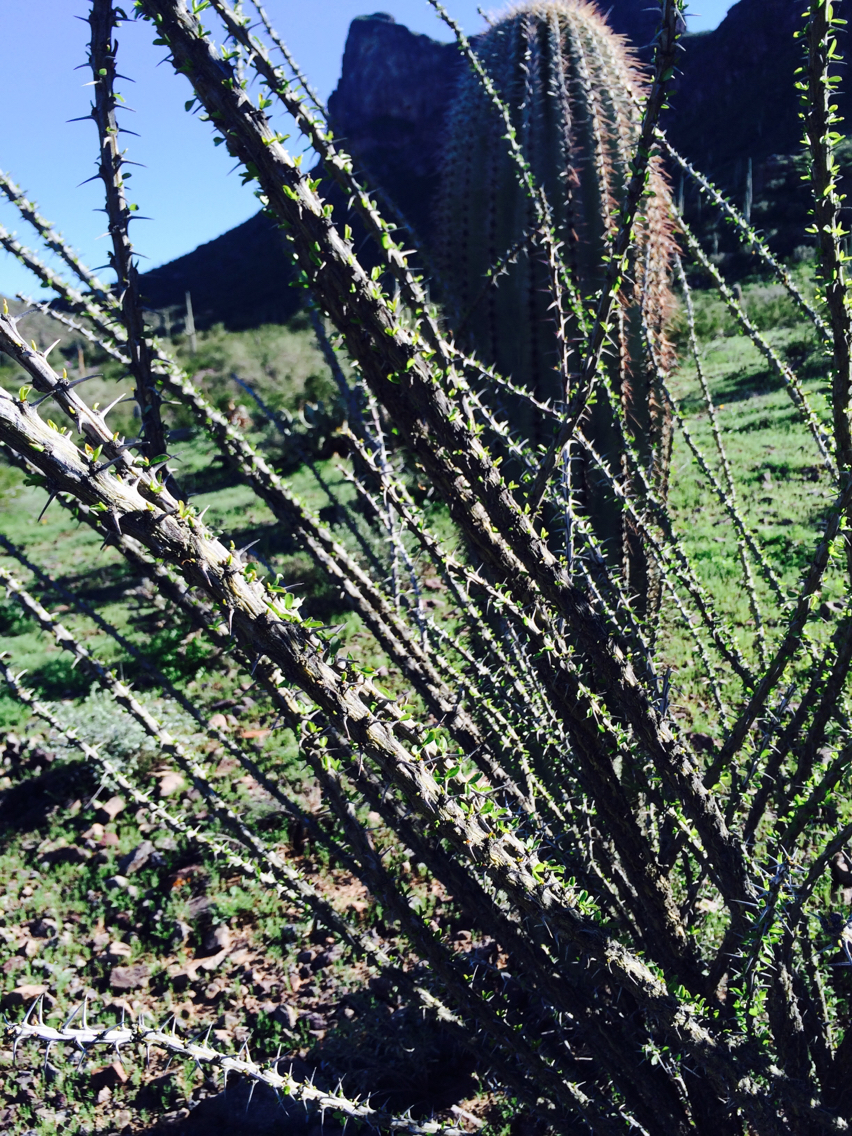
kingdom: Plantae
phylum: Tracheophyta
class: Magnoliopsida
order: Ericales
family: Fouquieriaceae
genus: Fouquieria
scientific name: Fouquieria splendens
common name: Vine-cactus
